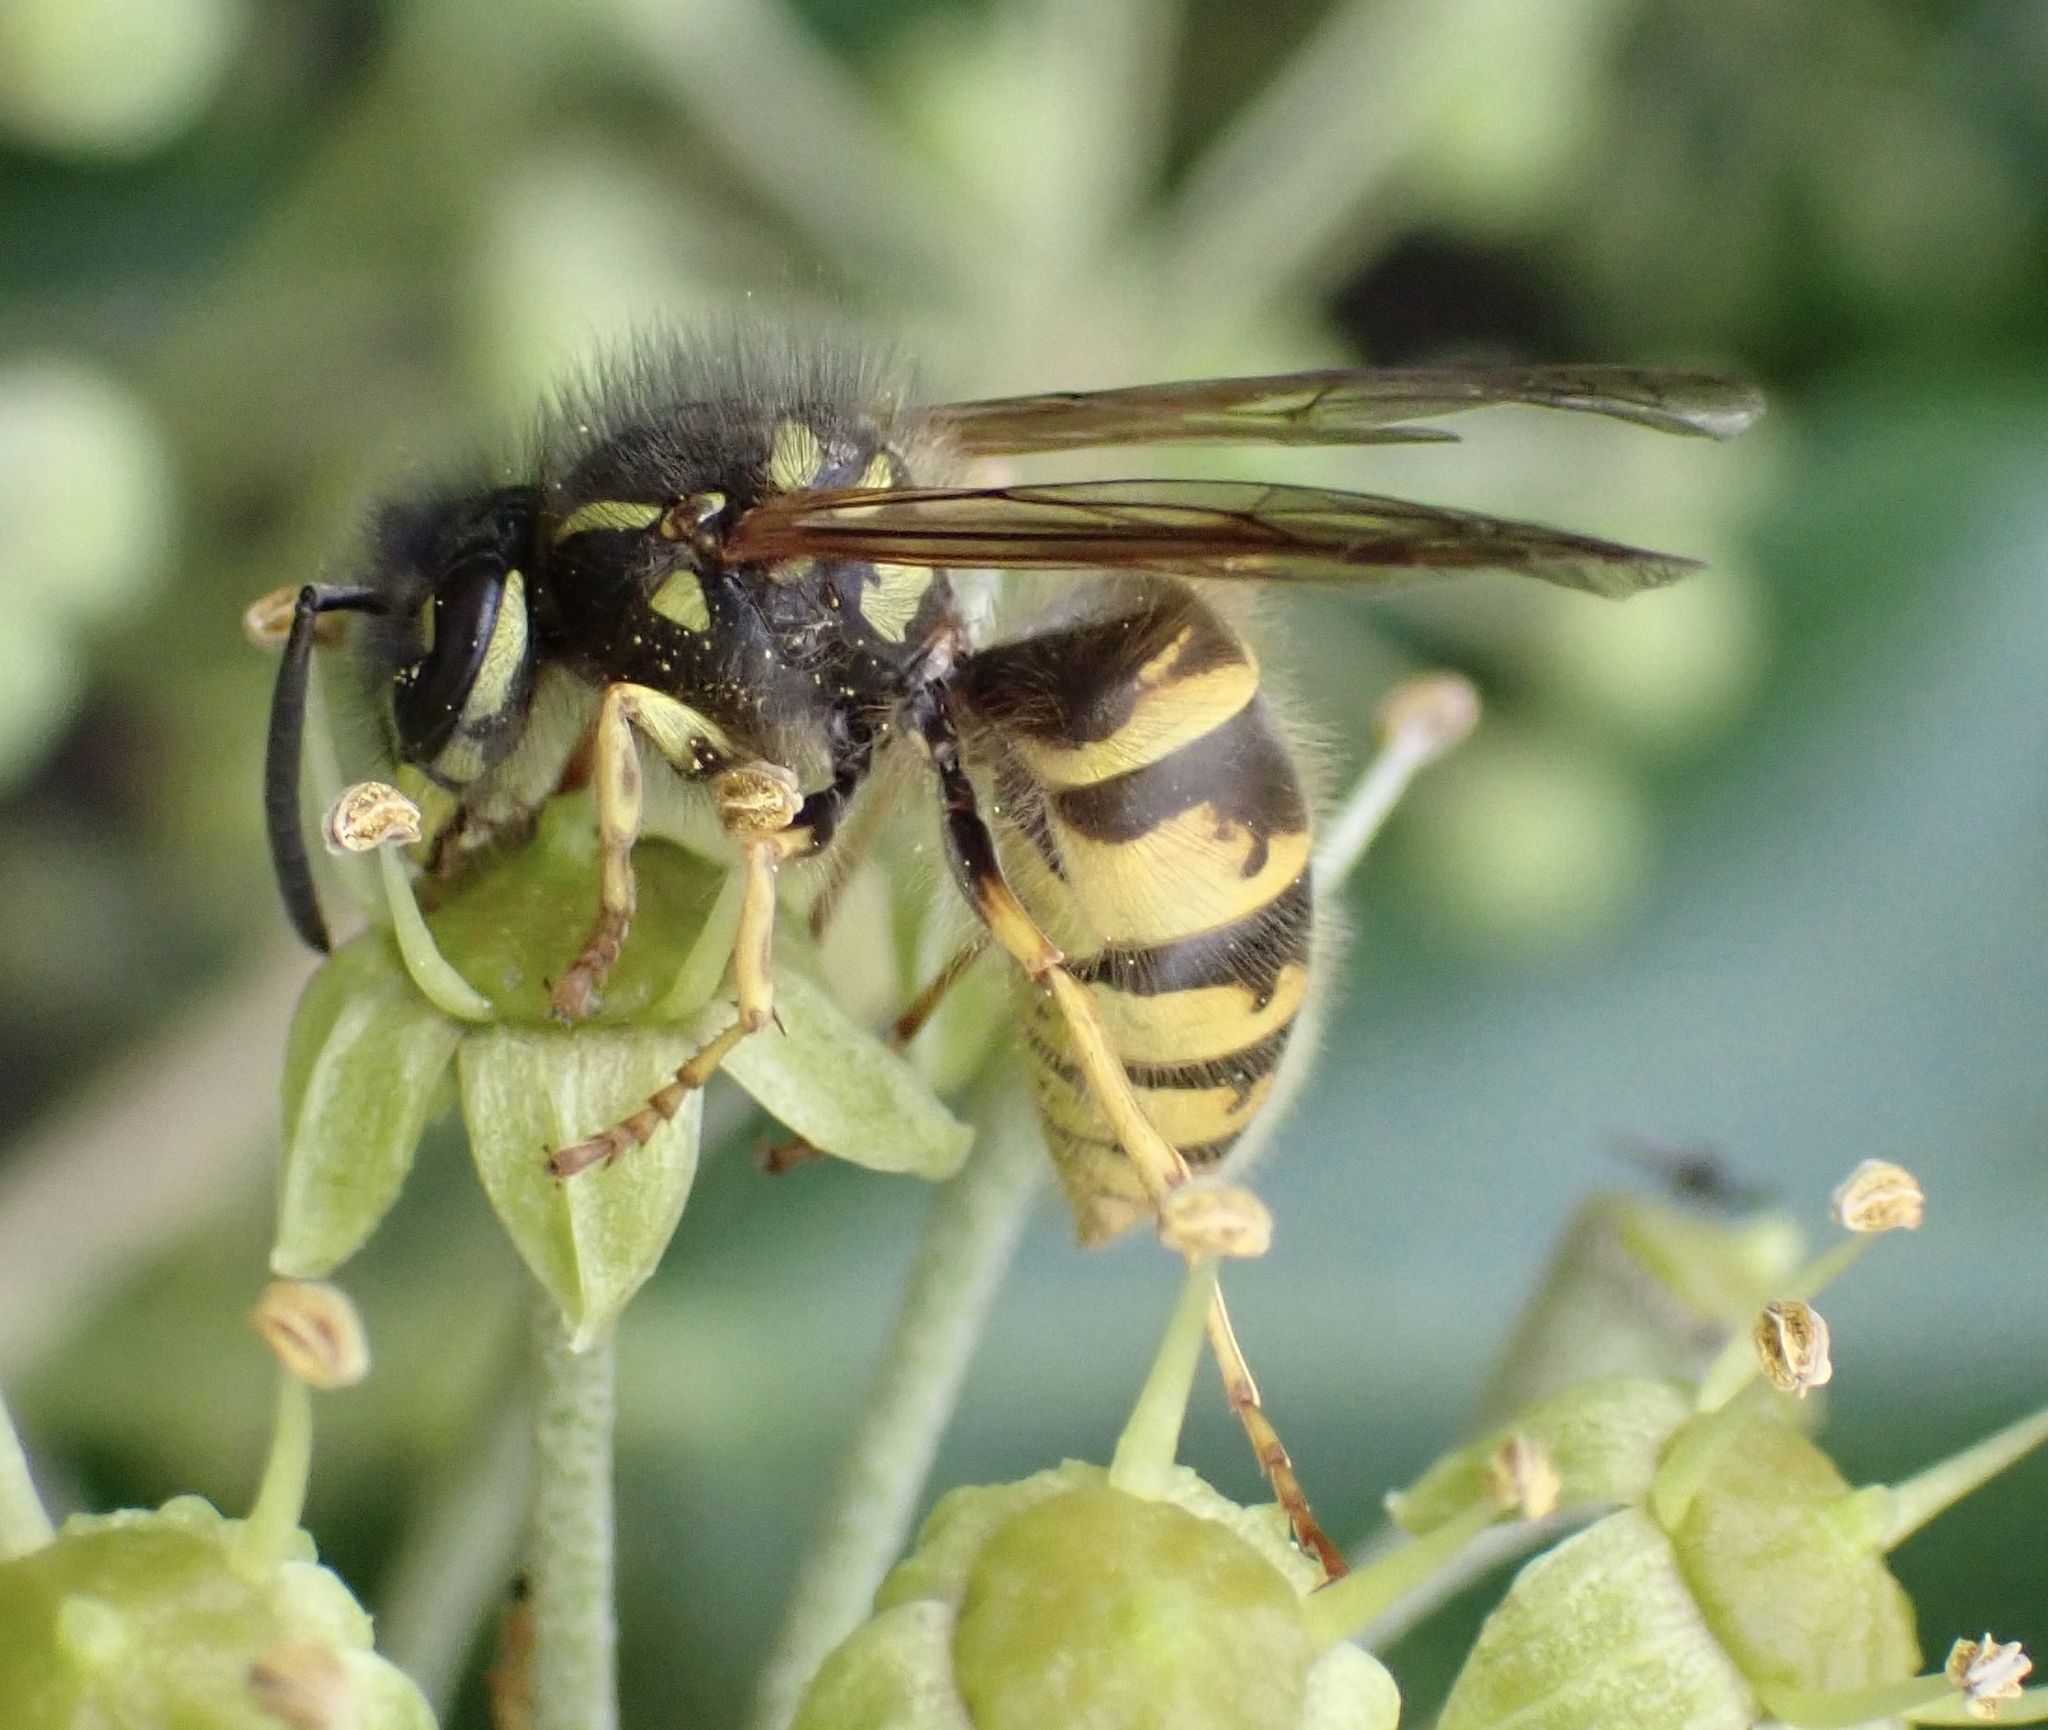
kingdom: Animalia
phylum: Arthropoda
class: Insecta
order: Hymenoptera
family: Vespidae
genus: Vespula
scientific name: Vespula vulgaris
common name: Common wasp
